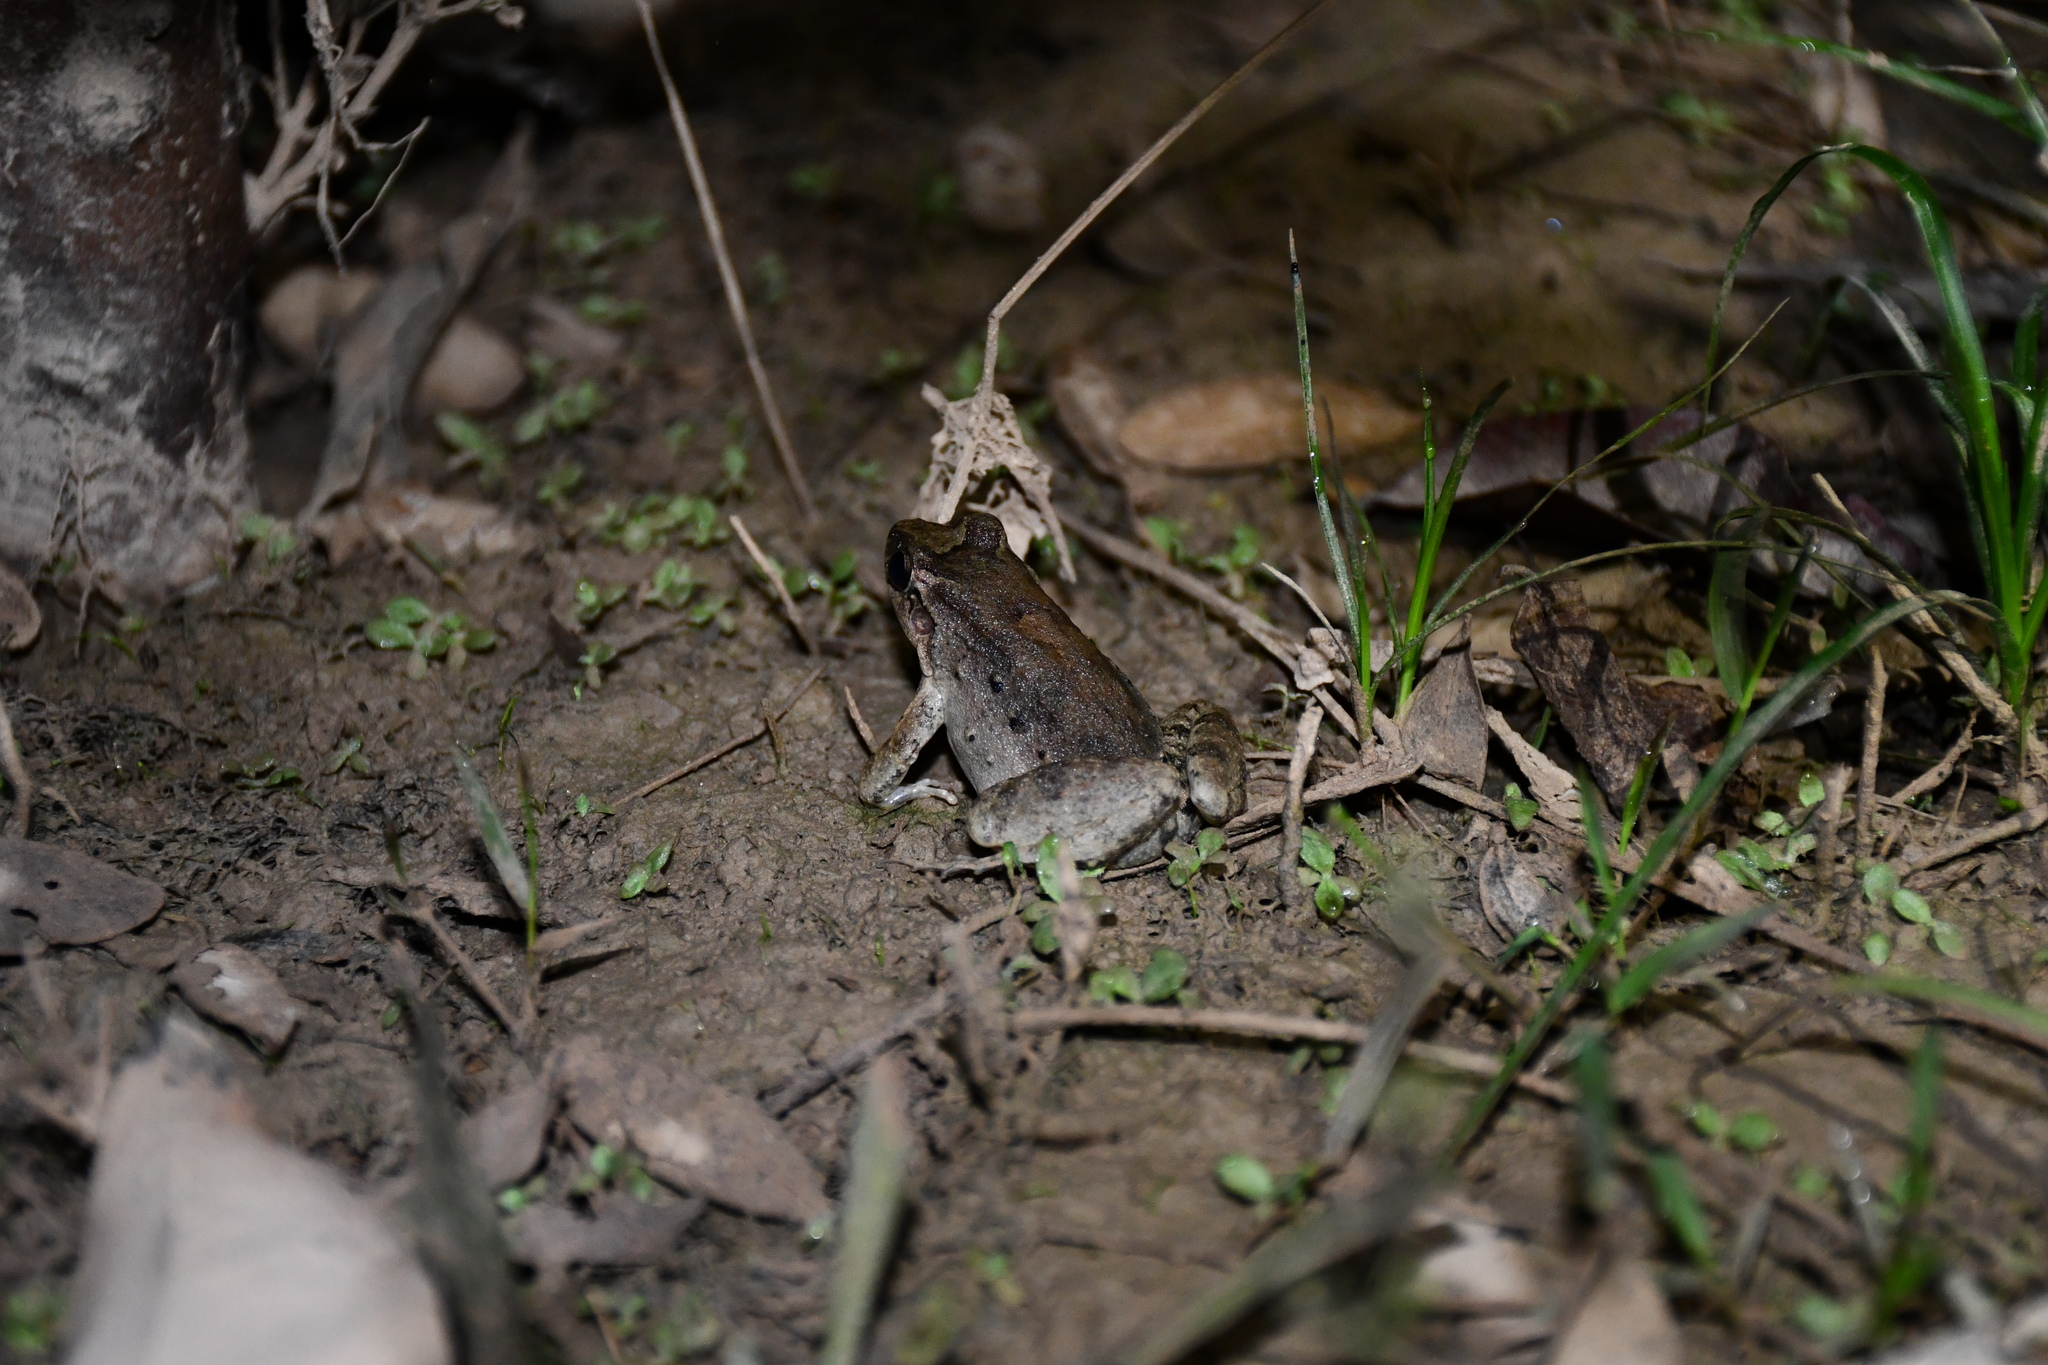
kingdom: Animalia
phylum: Chordata
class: Amphibia
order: Anura
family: Leptodactylidae
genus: Leptodactylus
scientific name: Leptodactylus petersii
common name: Peters' thin-toed frog
